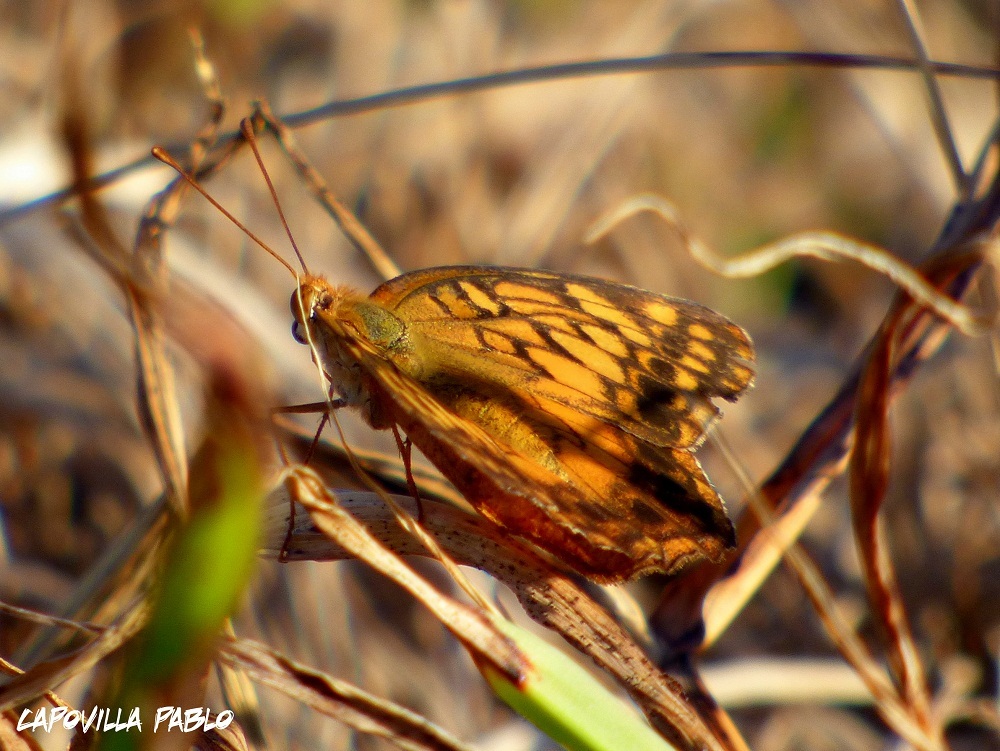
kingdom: Animalia
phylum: Arthropoda
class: Insecta
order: Lepidoptera
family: Nymphalidae
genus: Euptoieta
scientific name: Euptoieta hortensia
